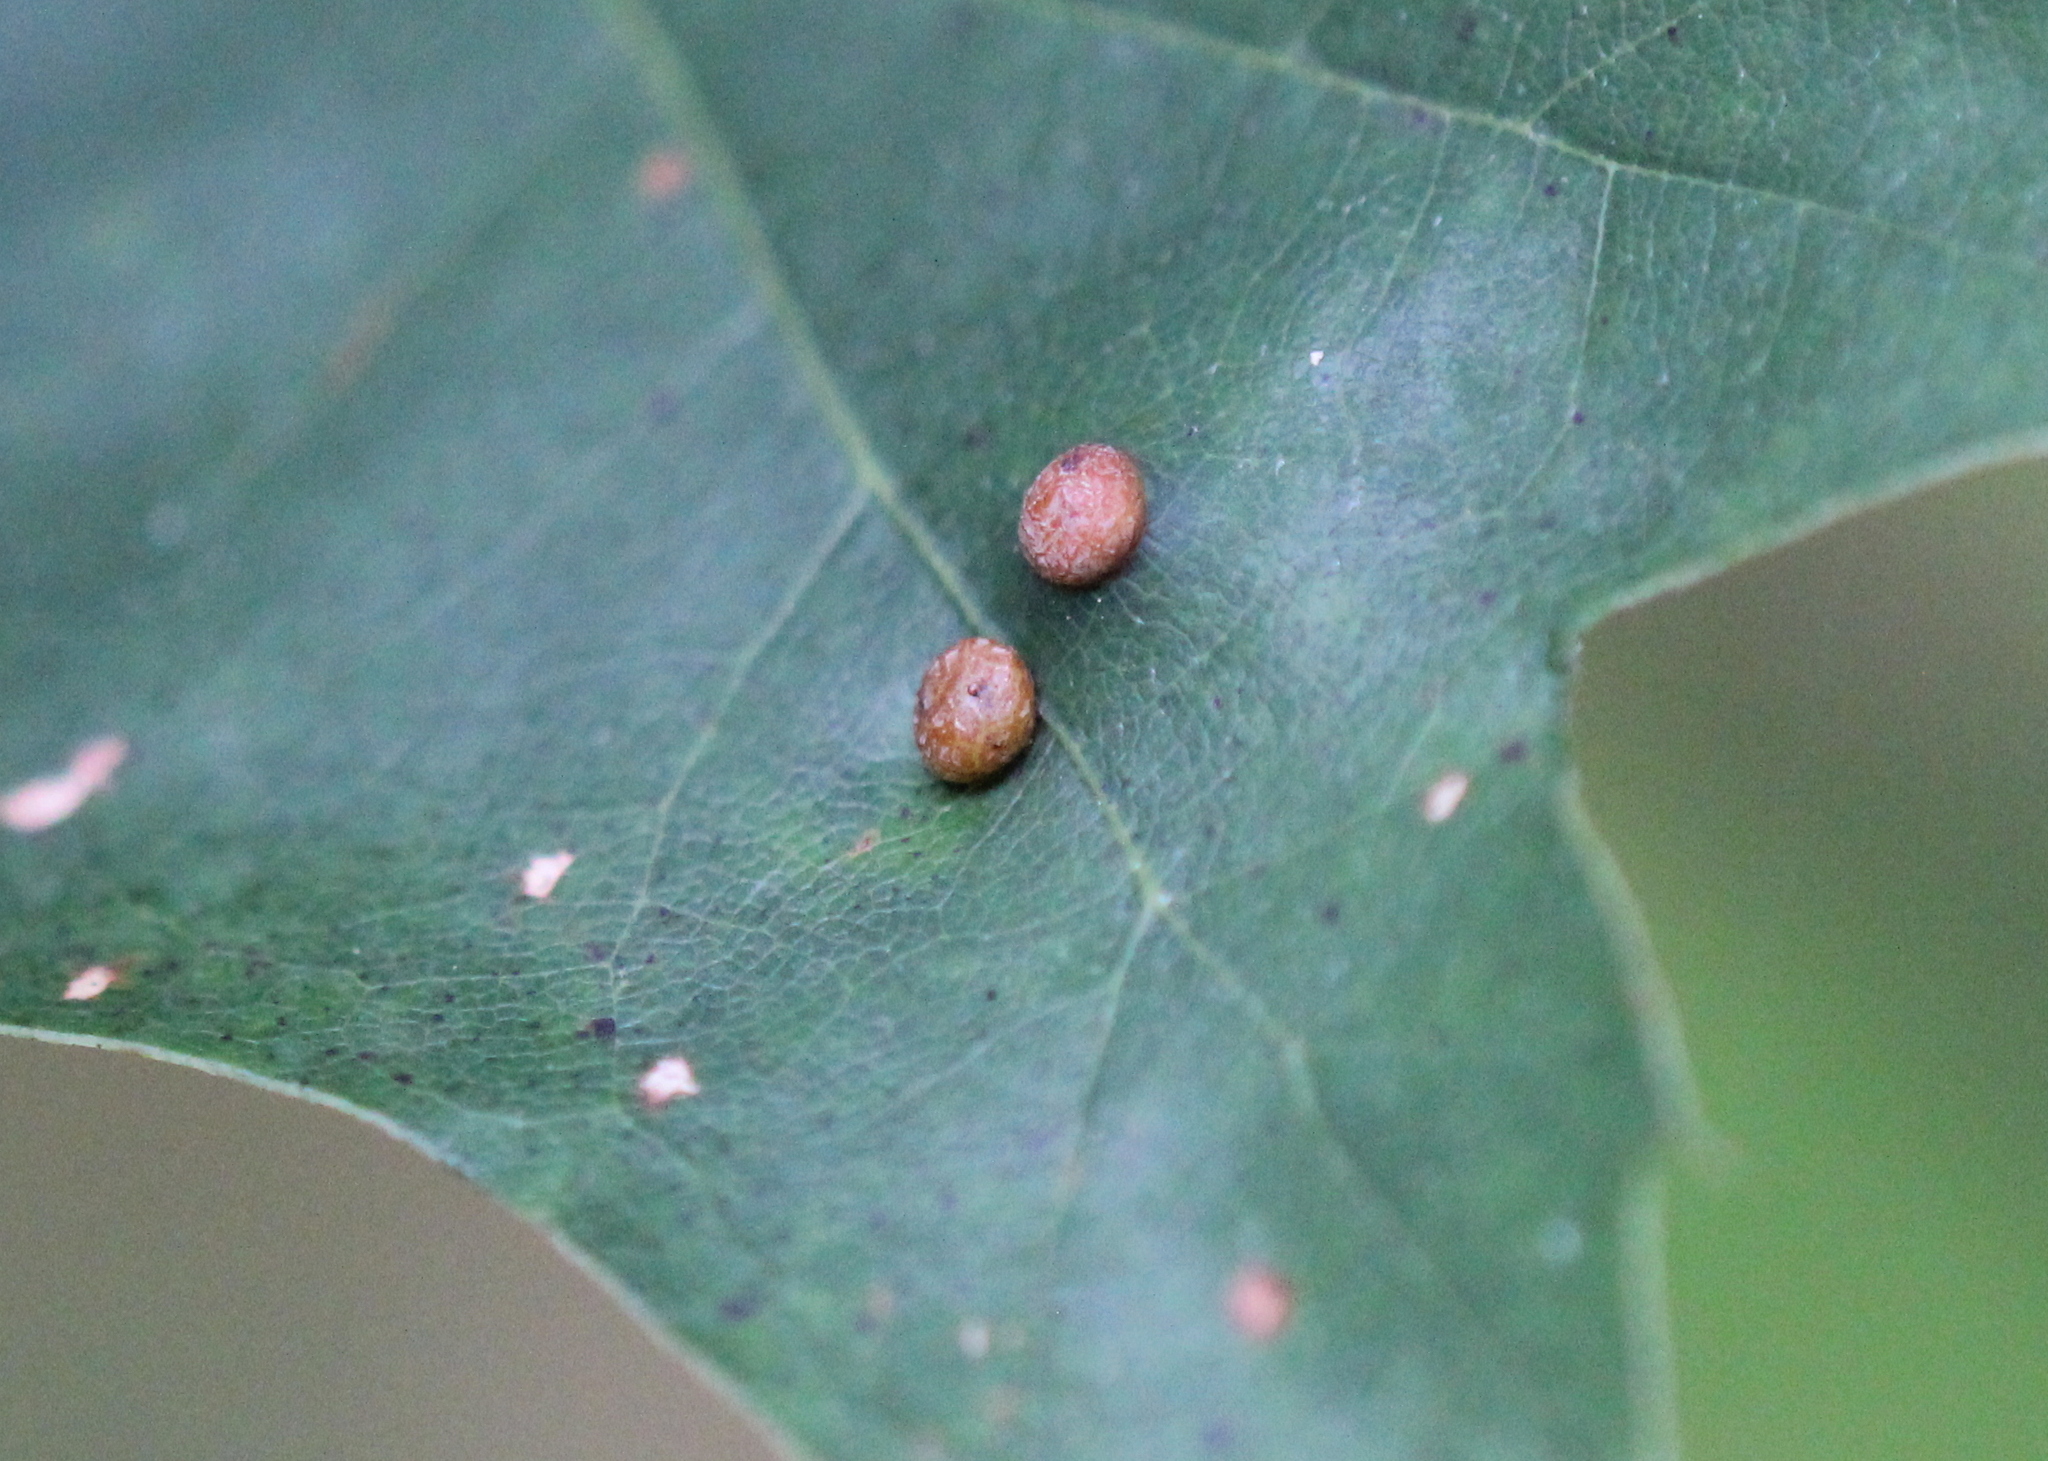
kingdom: Animalia
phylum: Arthropoda
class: Insecta
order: Diptera
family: Cecidomyiidae
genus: Polystepha
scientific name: Polystepha pilulae
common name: Oak leaf gall midge
